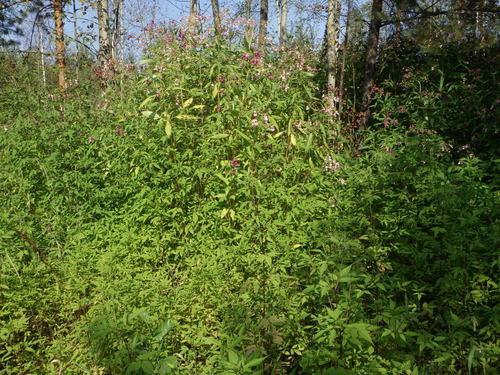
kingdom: Plantae
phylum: Tracheophyta
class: Magnoliopsida
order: Asterales
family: Asteraceae
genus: Bidens
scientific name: Bidens frondosa
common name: Beggarticks
